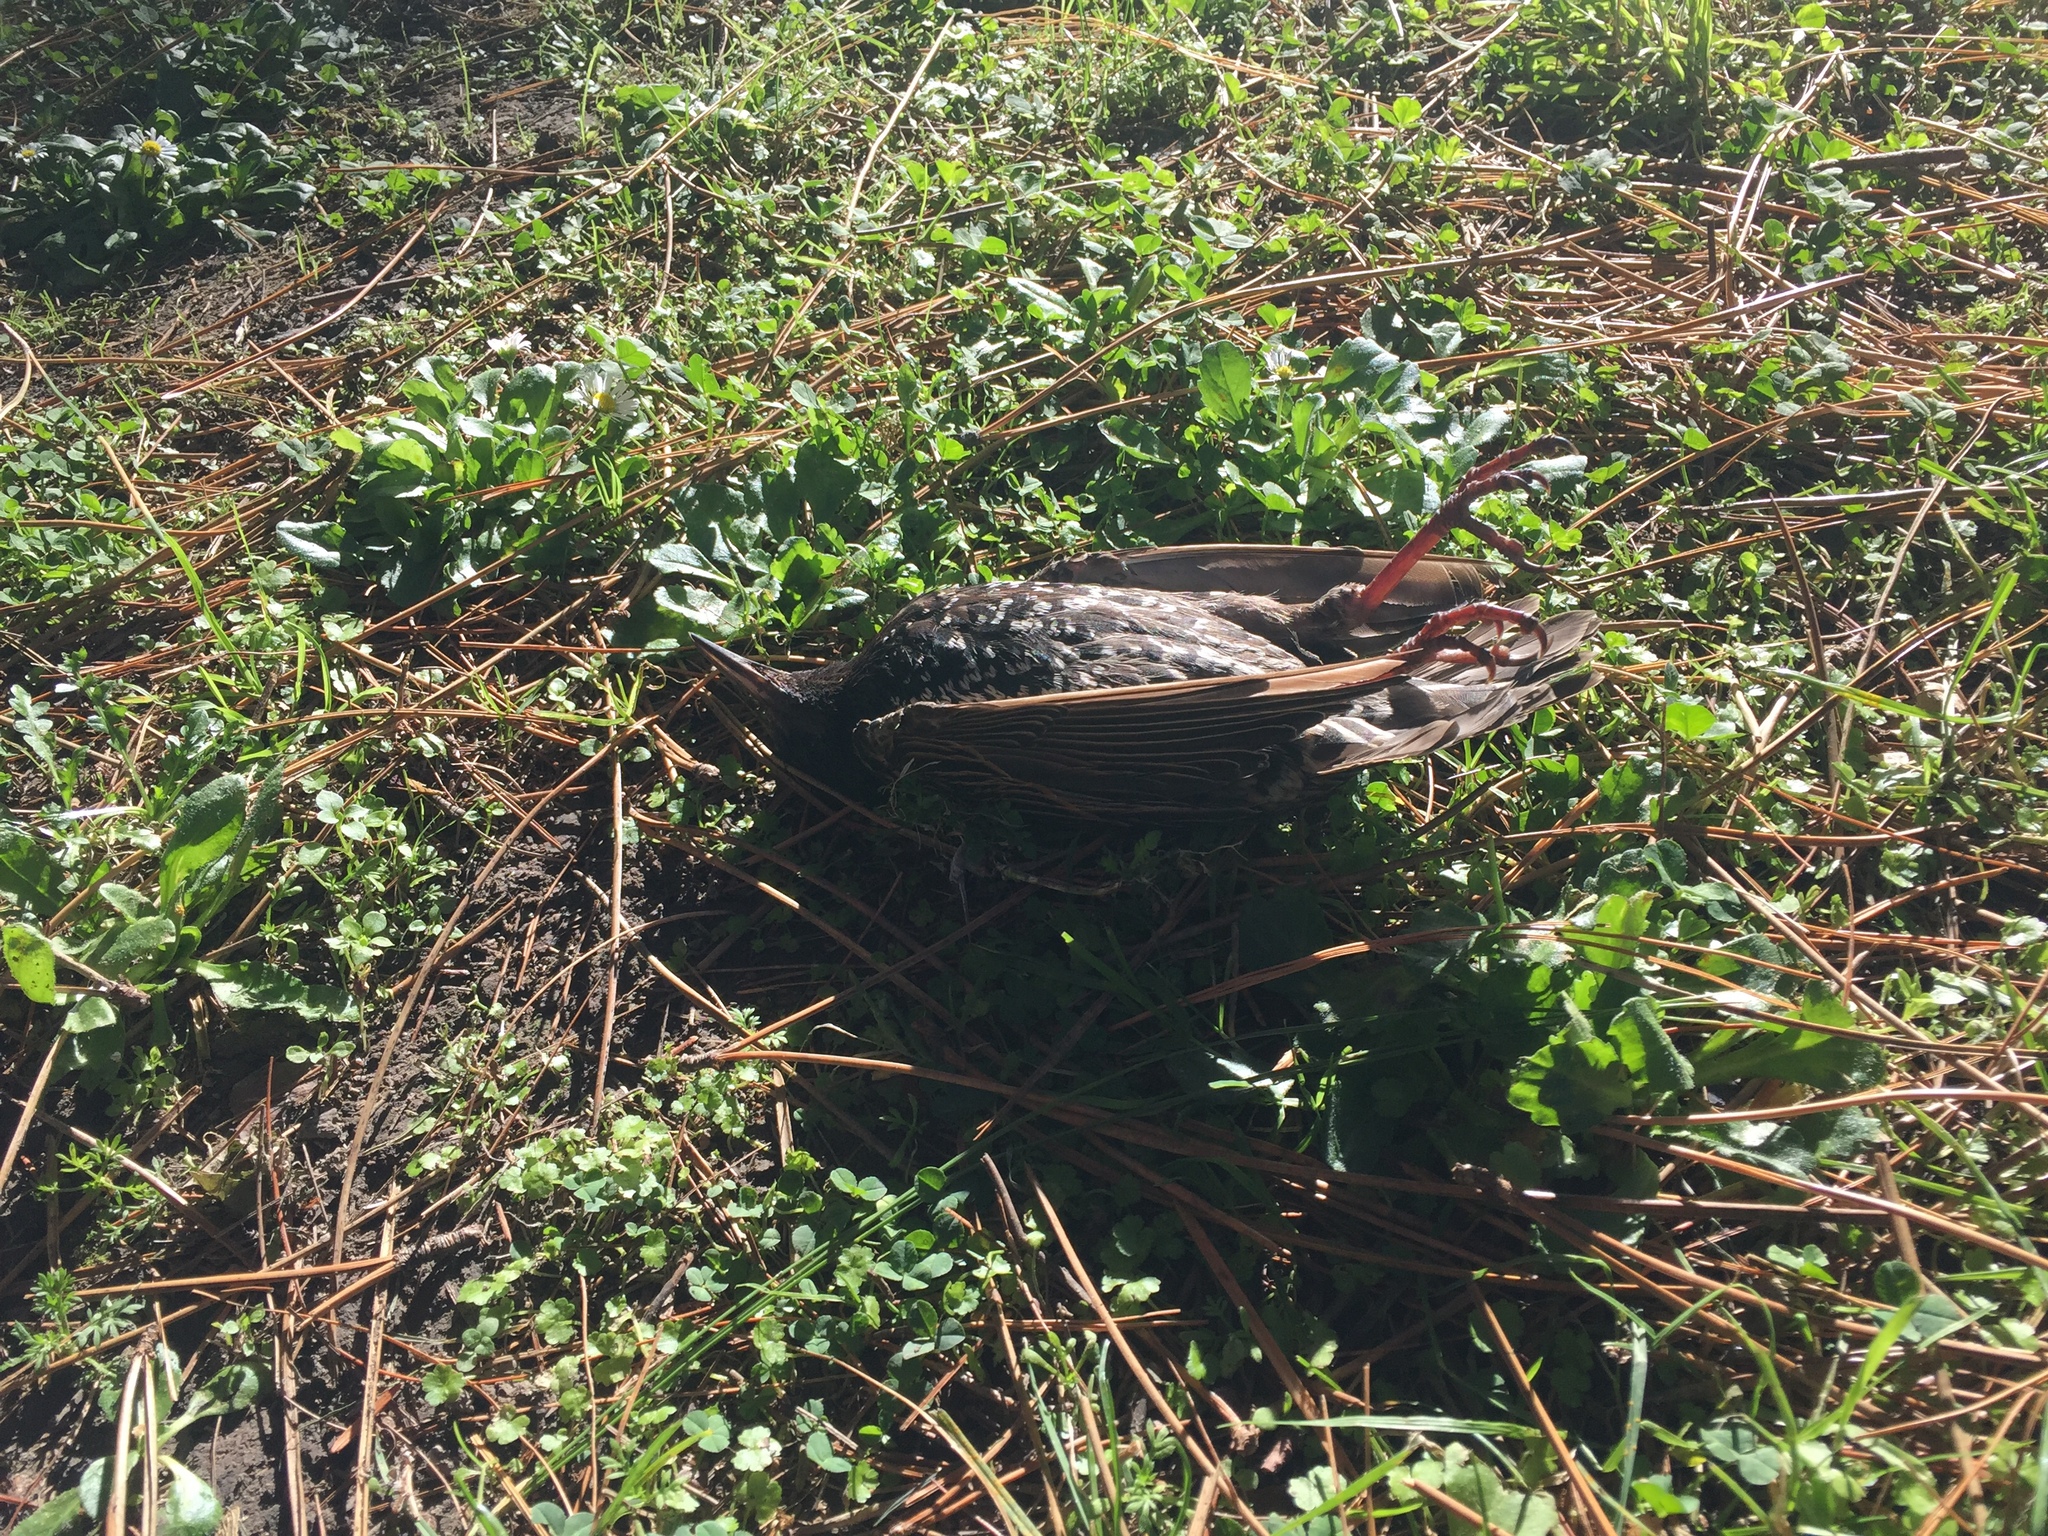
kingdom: Animalia
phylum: Chordata
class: Aves
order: Passeriformes
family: Sturnidae
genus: Sturnus
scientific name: Sturnus vulgaris
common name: Common starling
